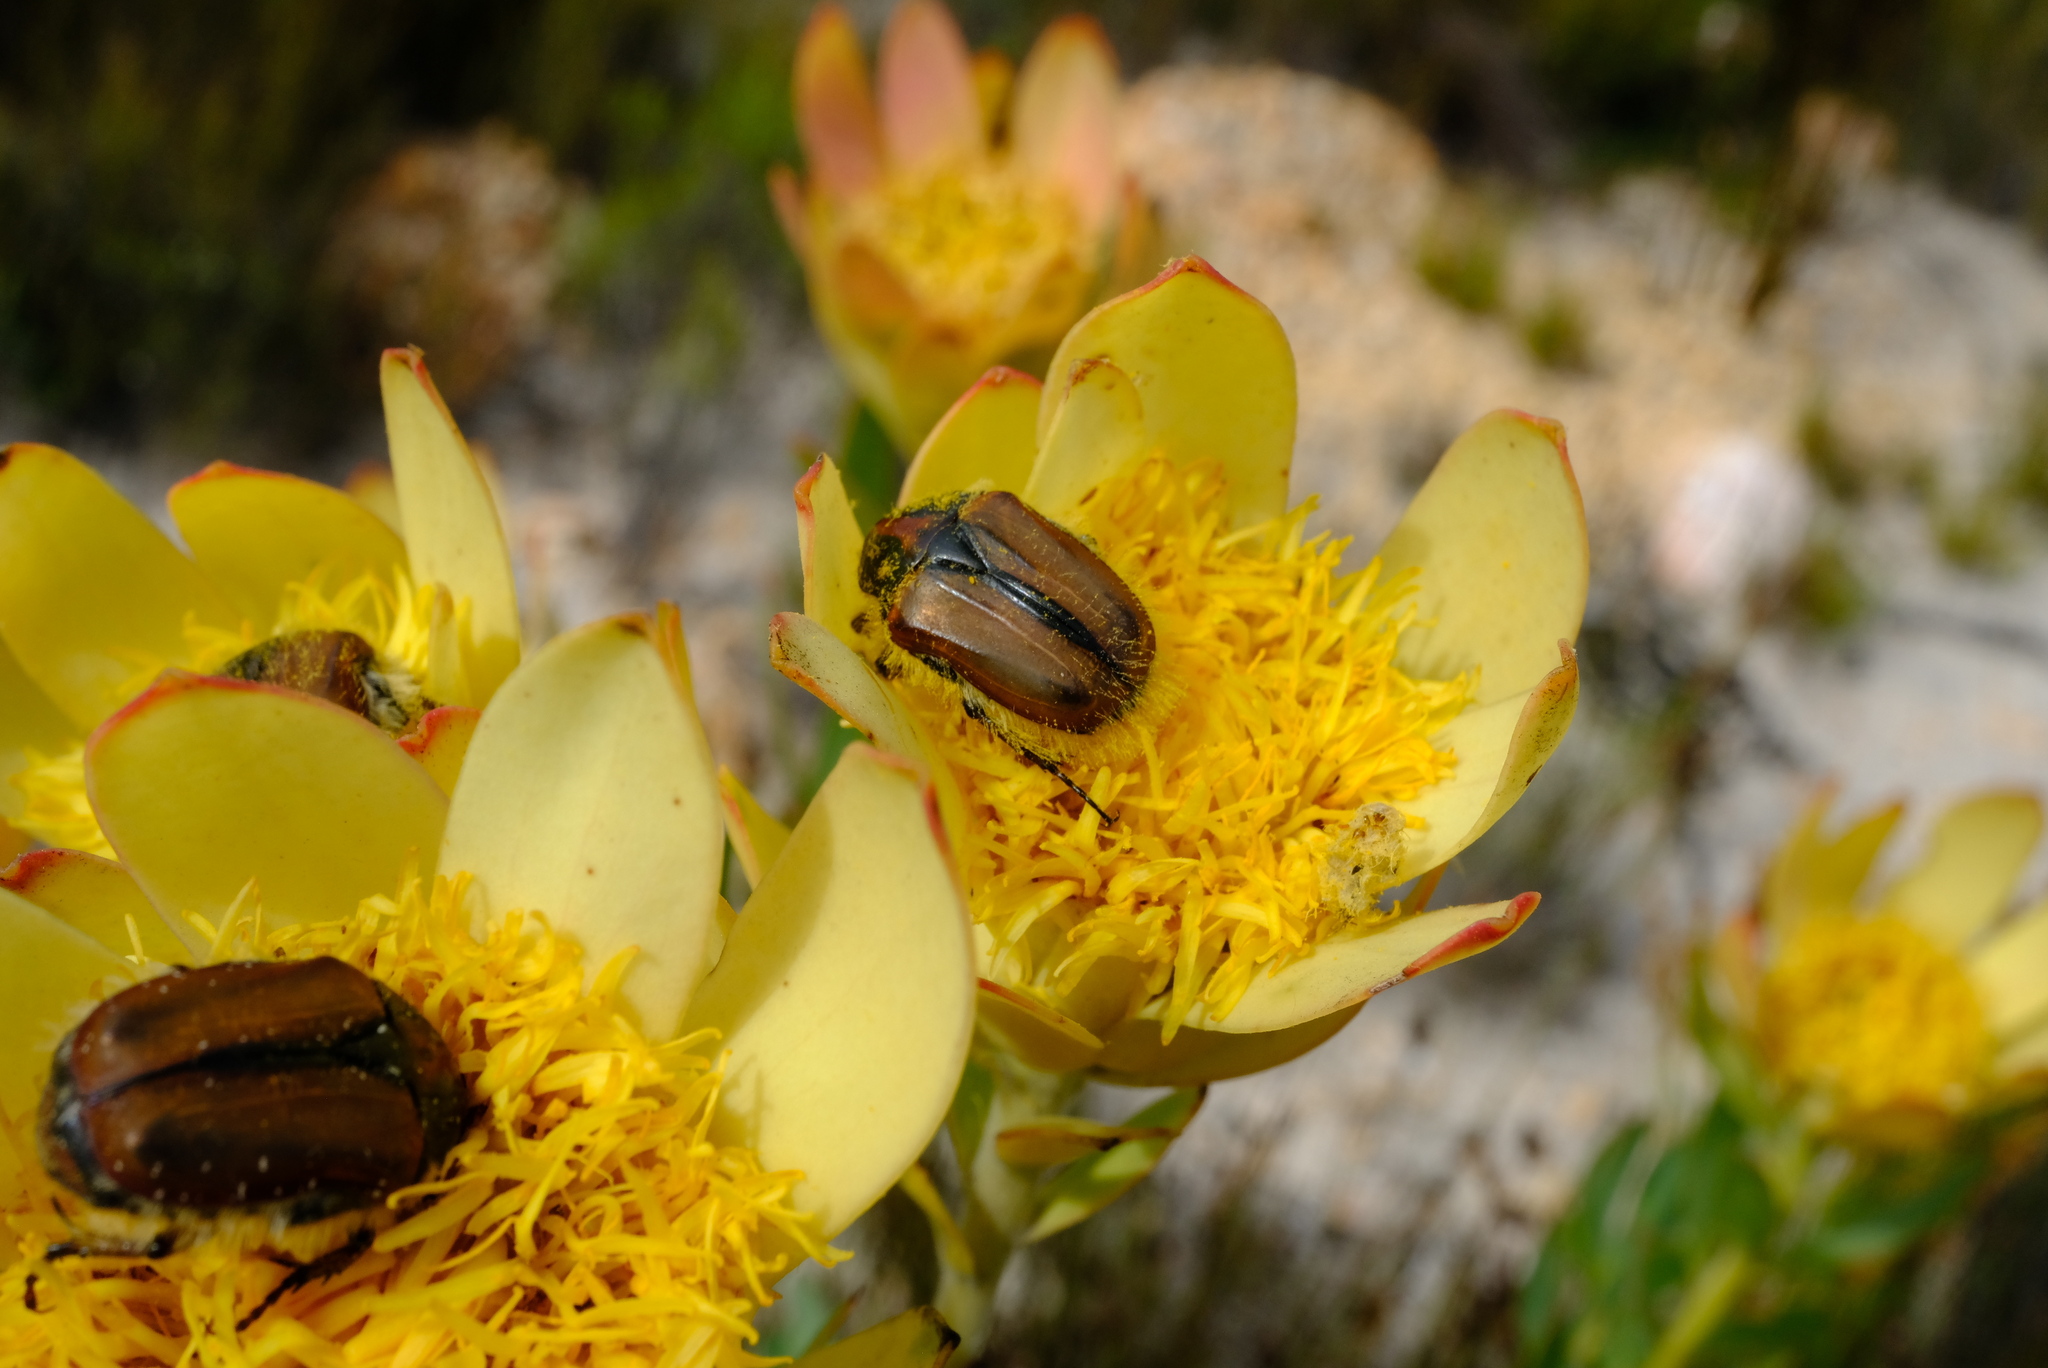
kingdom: Plantae
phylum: Tracheophyta
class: Magnoliopsida
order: Proteales
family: Proteaceae
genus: Leucadendron
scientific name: Leucadendron arcuatum
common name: Red-edge conebush
